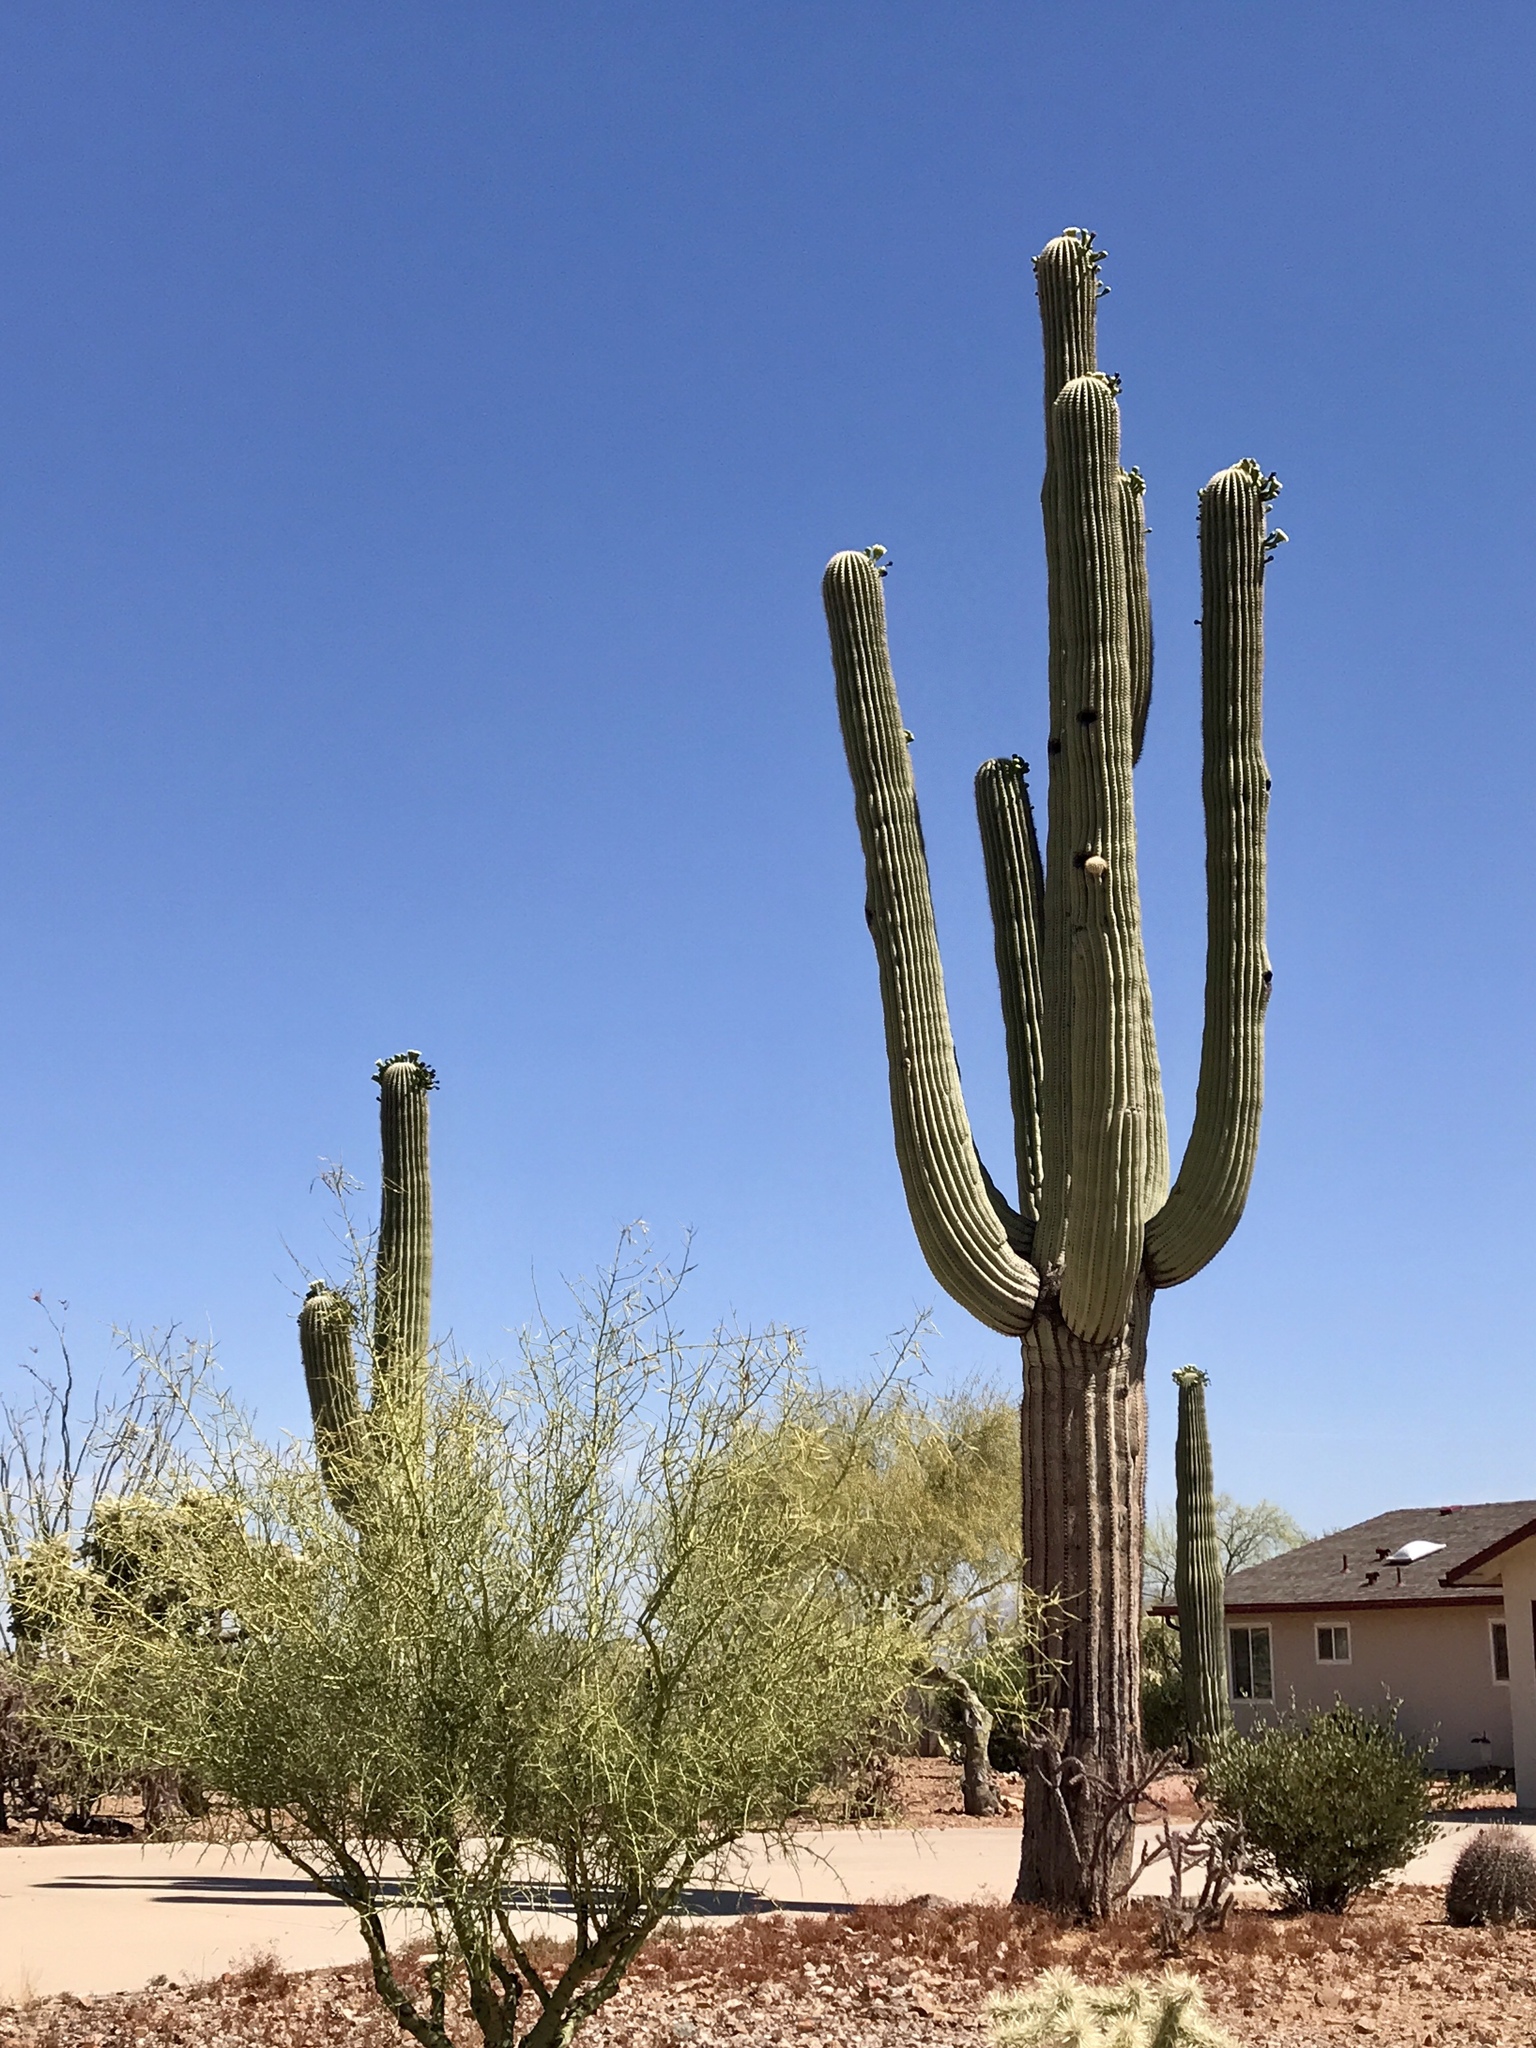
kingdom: Plantae
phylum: Tracheophyta
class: Magnoliopsida
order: Caryophyllales
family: Cactaceae
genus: Carnegiea
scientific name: Carnegiea gigantea
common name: Saguaro
